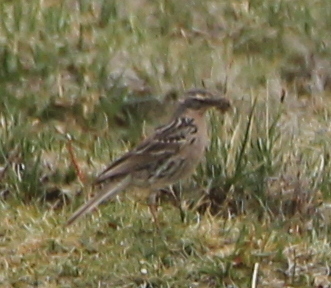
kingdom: Animalia
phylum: Chordata
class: Aves
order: Passeriformes
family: Motacillidae
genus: Anthus
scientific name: Anthus roseatus
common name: Rosy pipit
